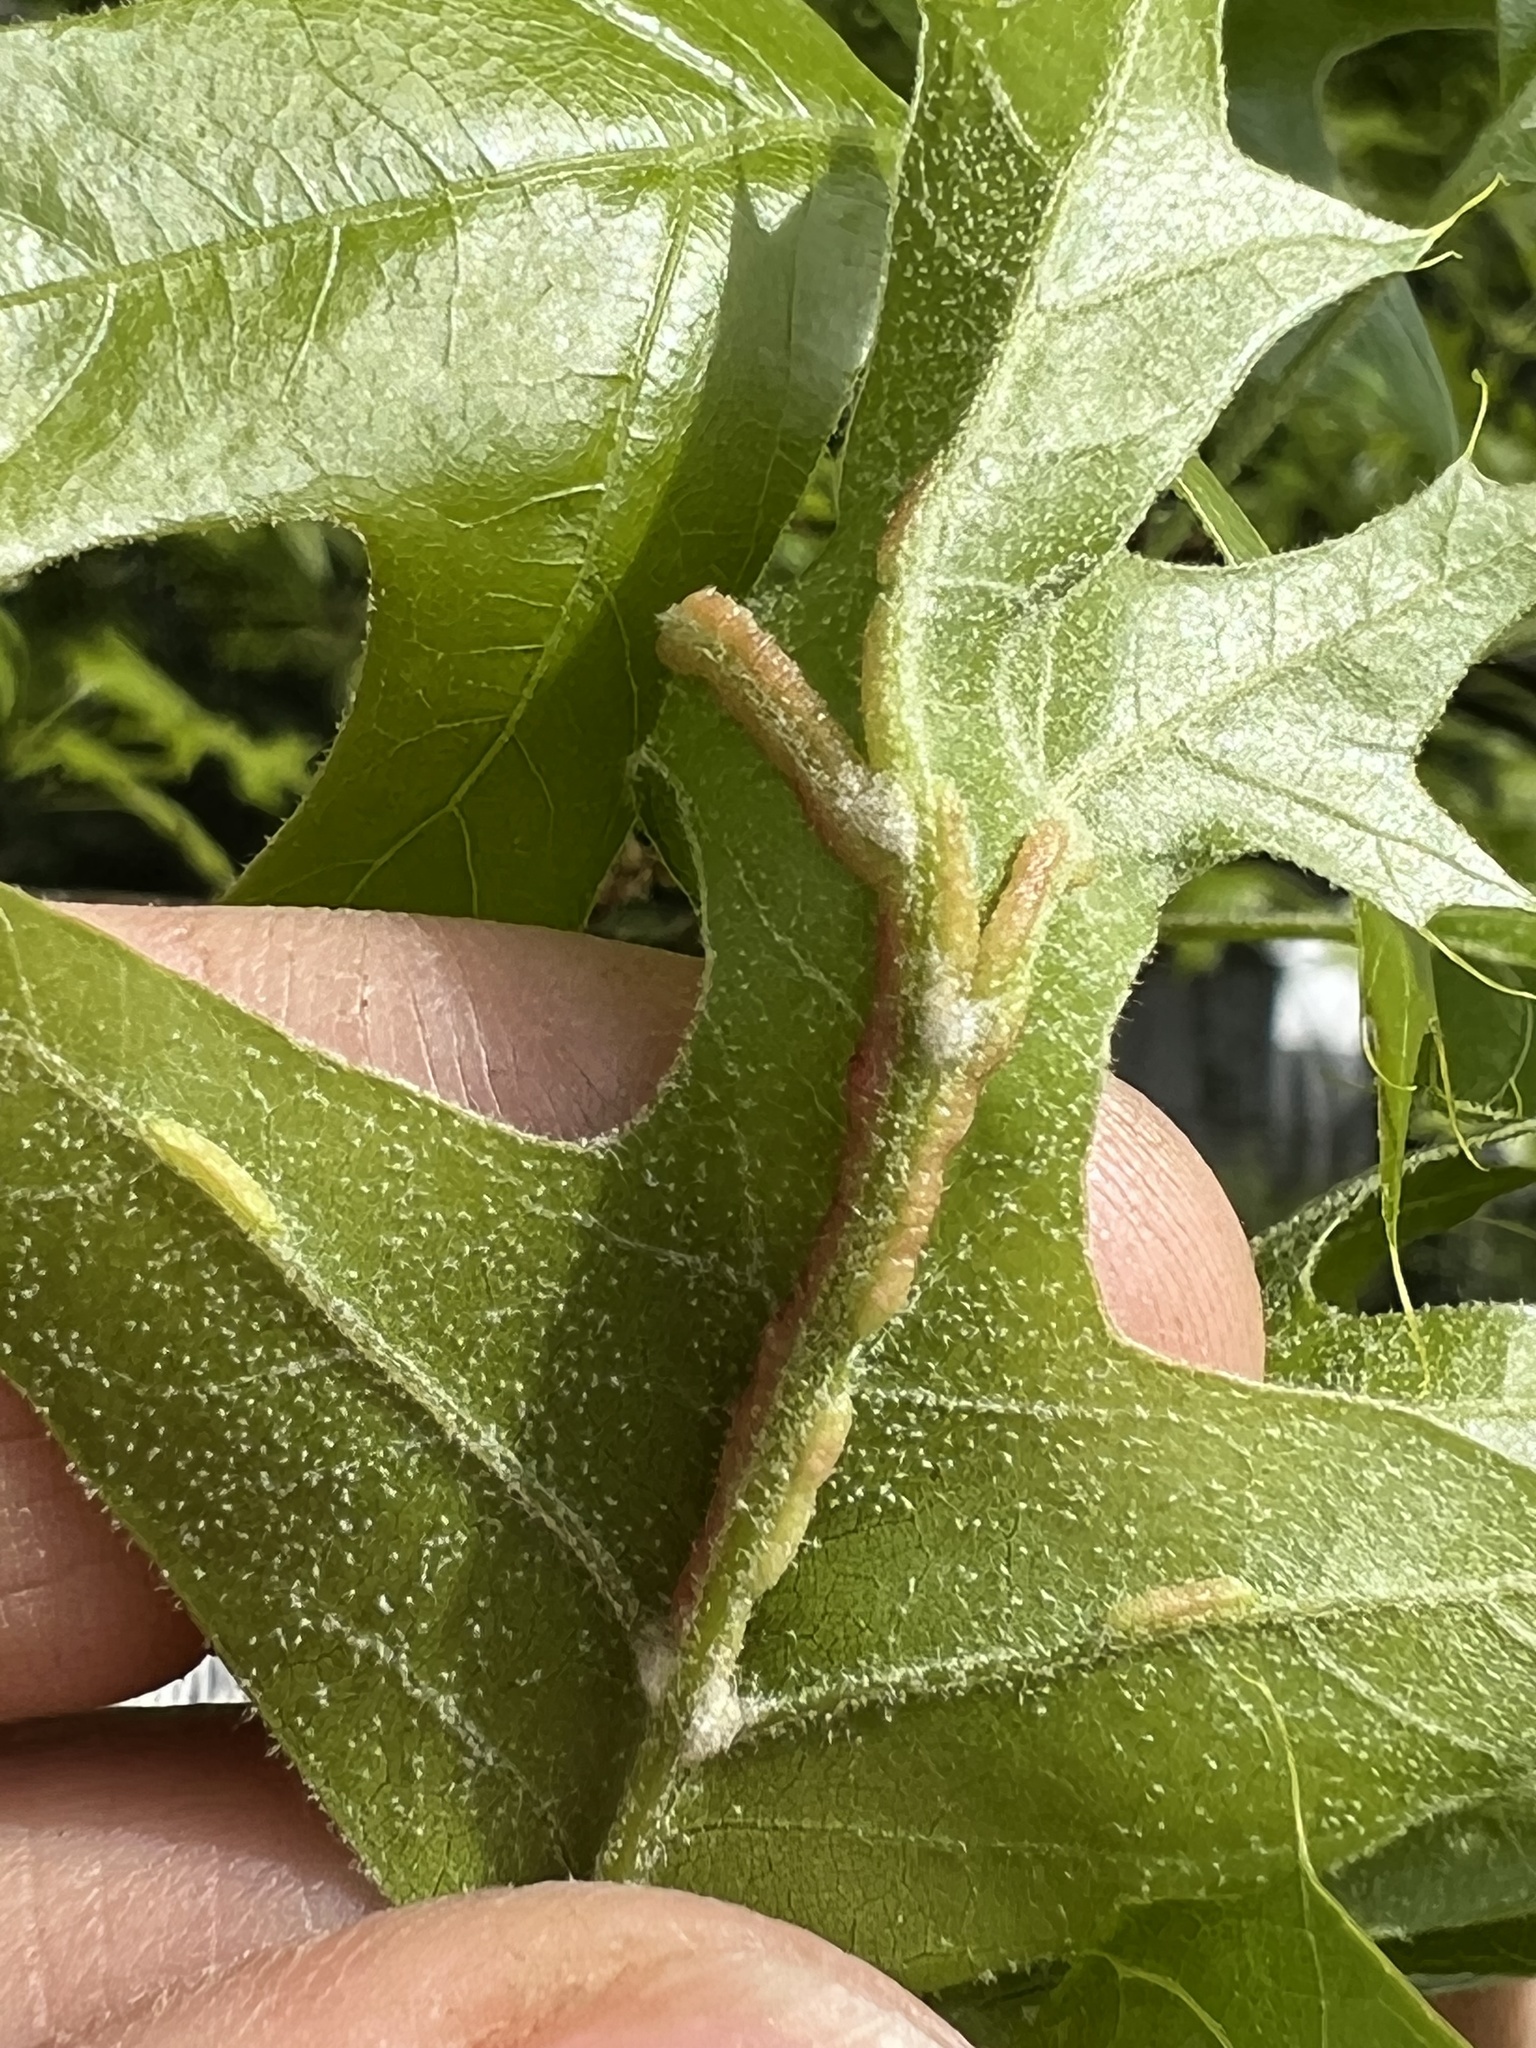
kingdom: Animalia
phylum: Arthropoda
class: Insecta
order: Diptera
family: Cecidomyiidae
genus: Macrodiplosis
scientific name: Macrodiplosis q-orucum
